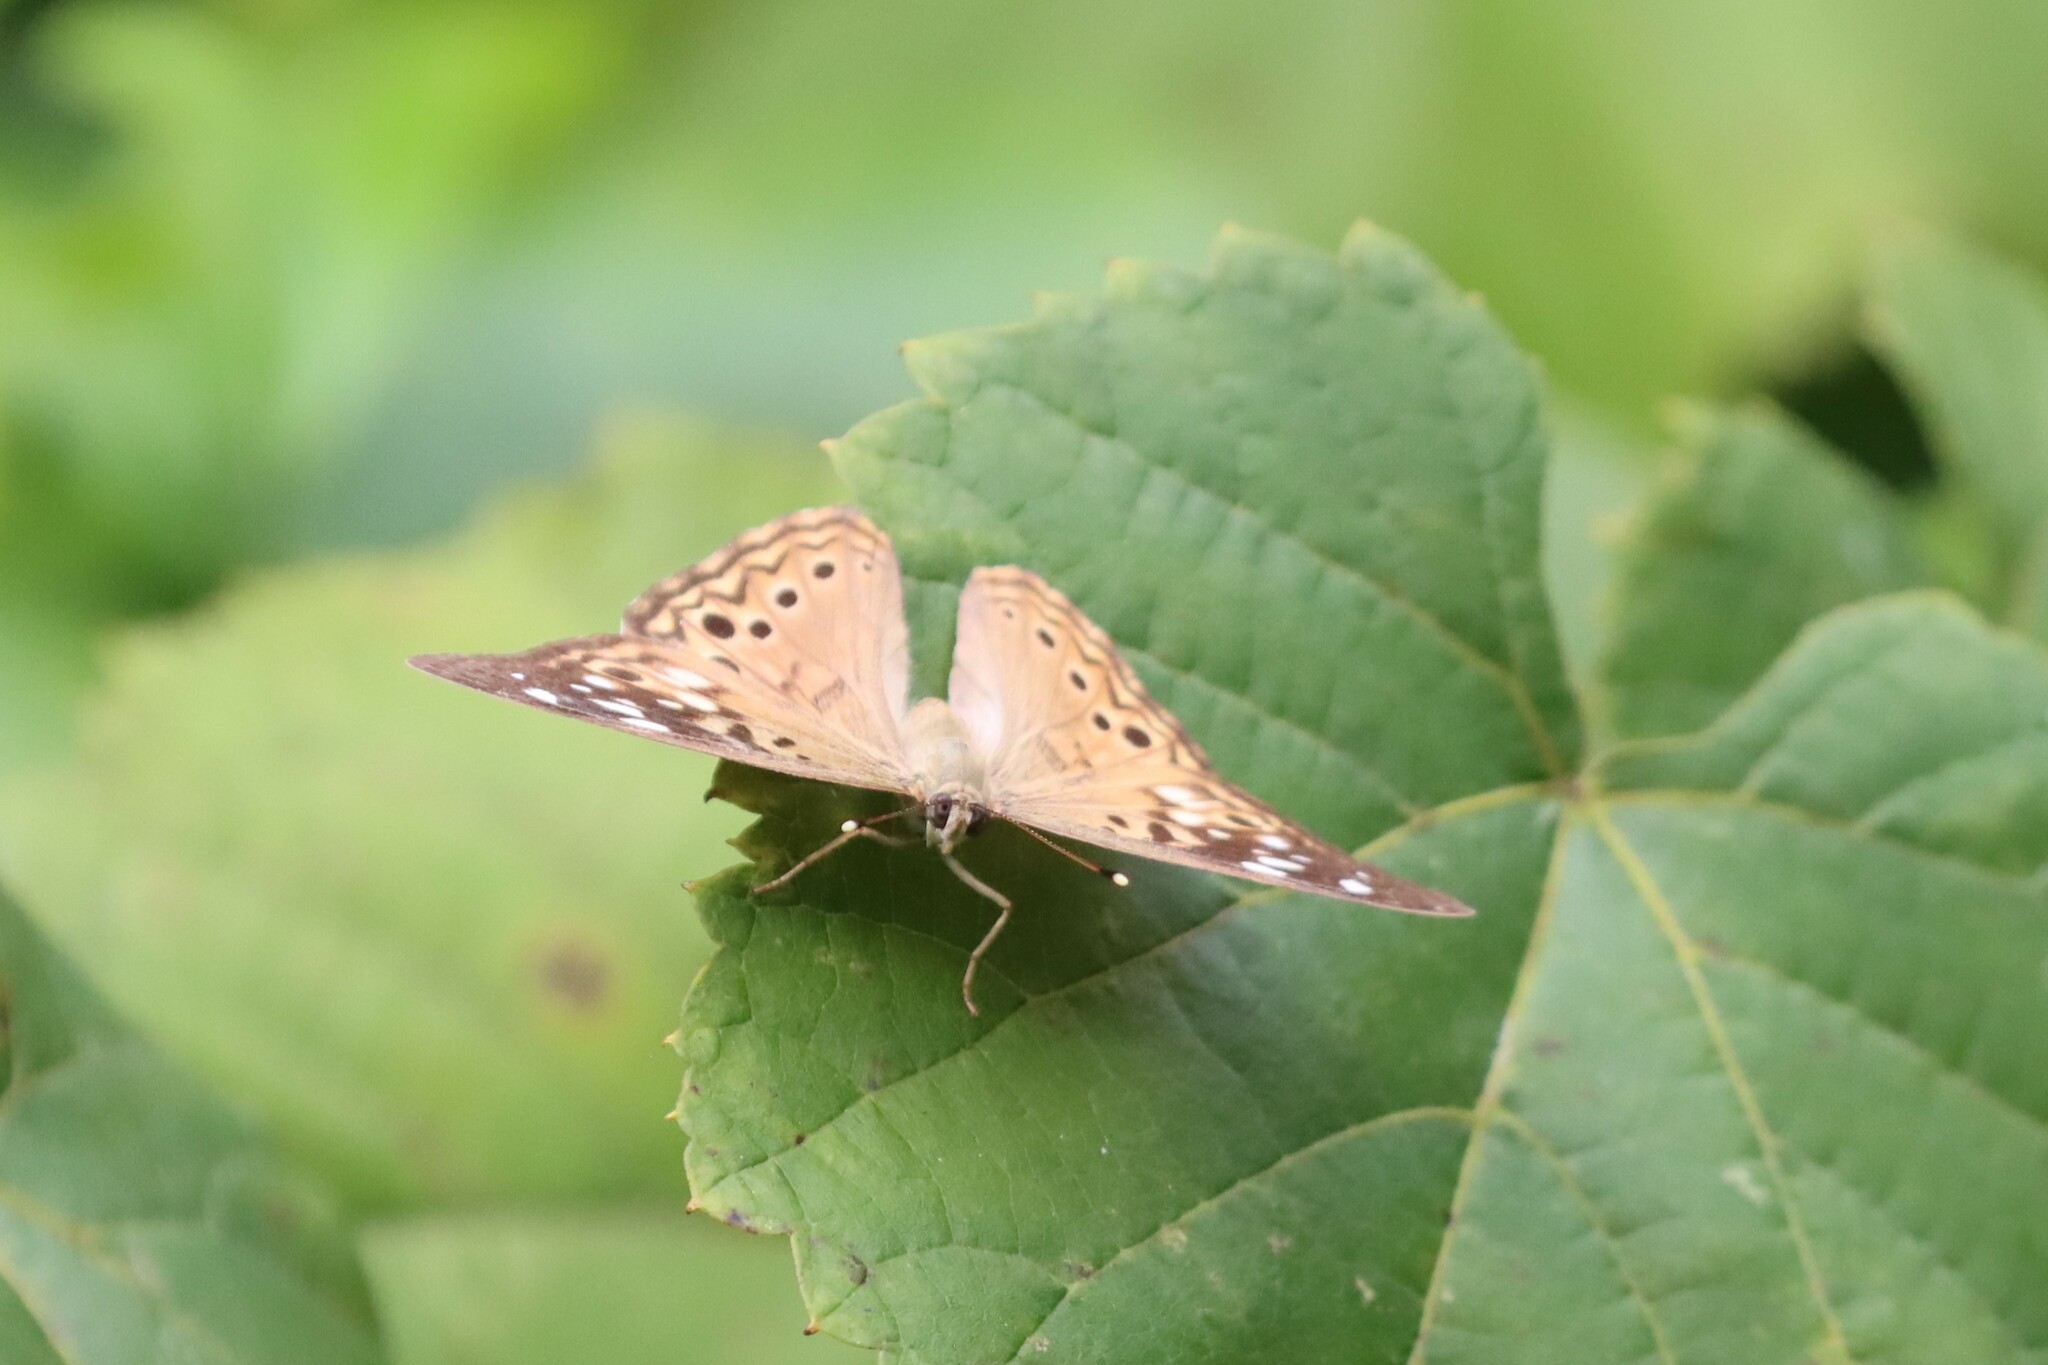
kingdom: Animalia
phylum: Arthropoda
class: Insecta
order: Lepidoptera
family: Nymphalidae
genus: Asterocampa
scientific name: Asterocampa celtis
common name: Hackberry emperor
